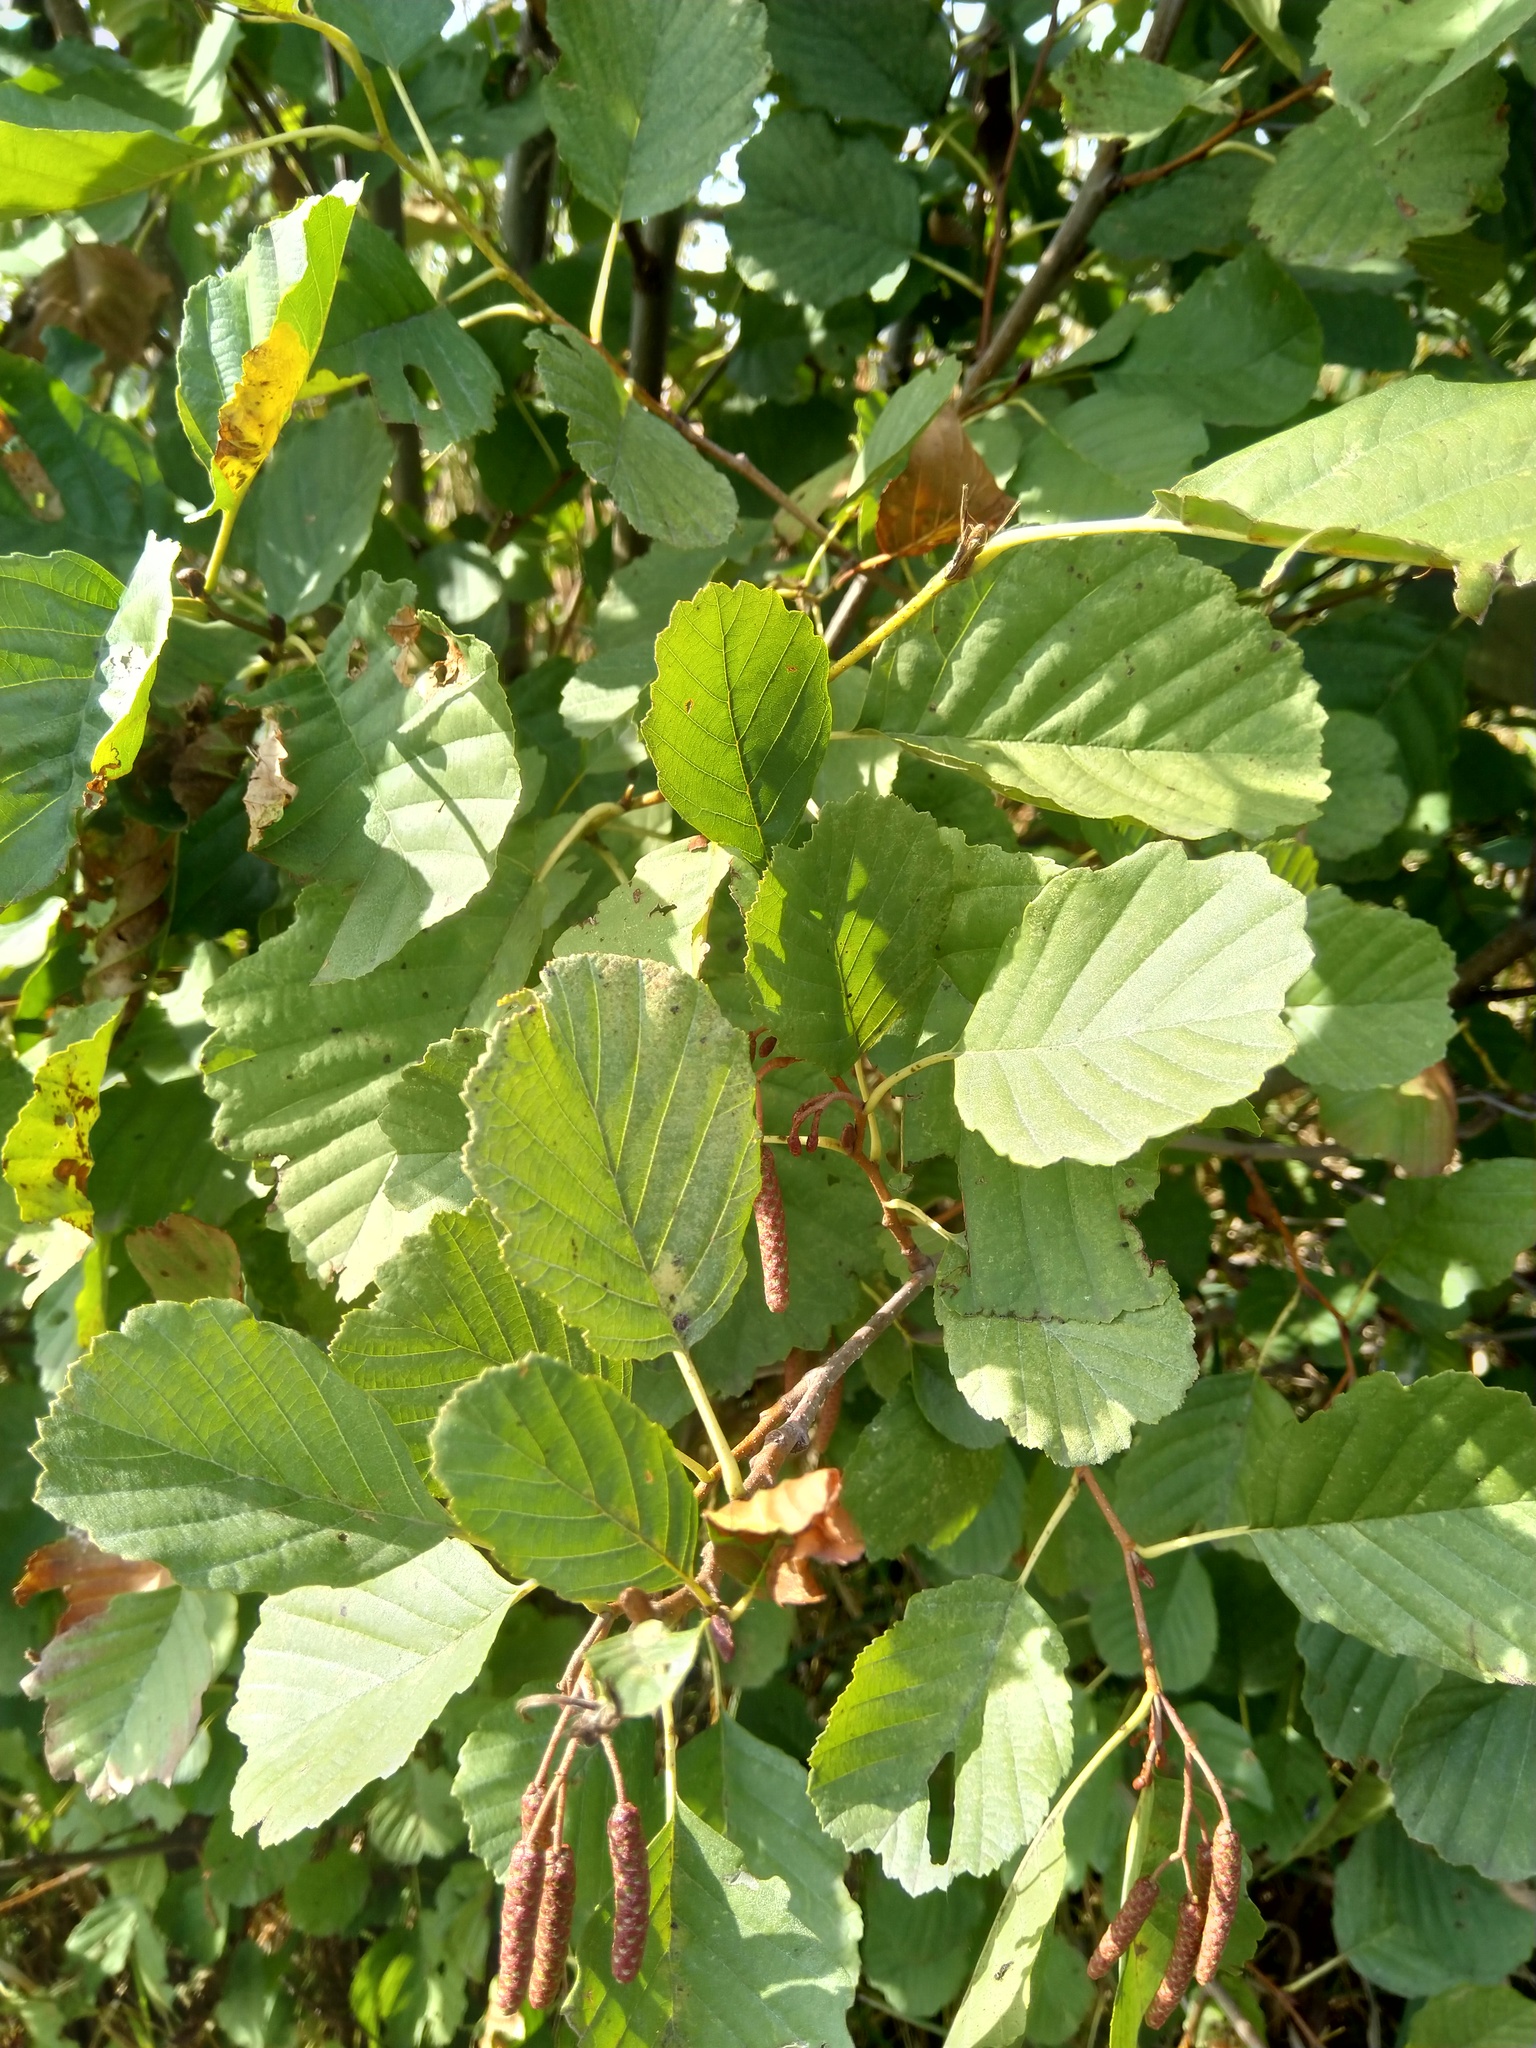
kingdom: Plantae
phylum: Tracheophyta
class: Magnoliopsida
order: Fagales
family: Betulaceae
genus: Alnus
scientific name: Alnus incana
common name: Grey alder
